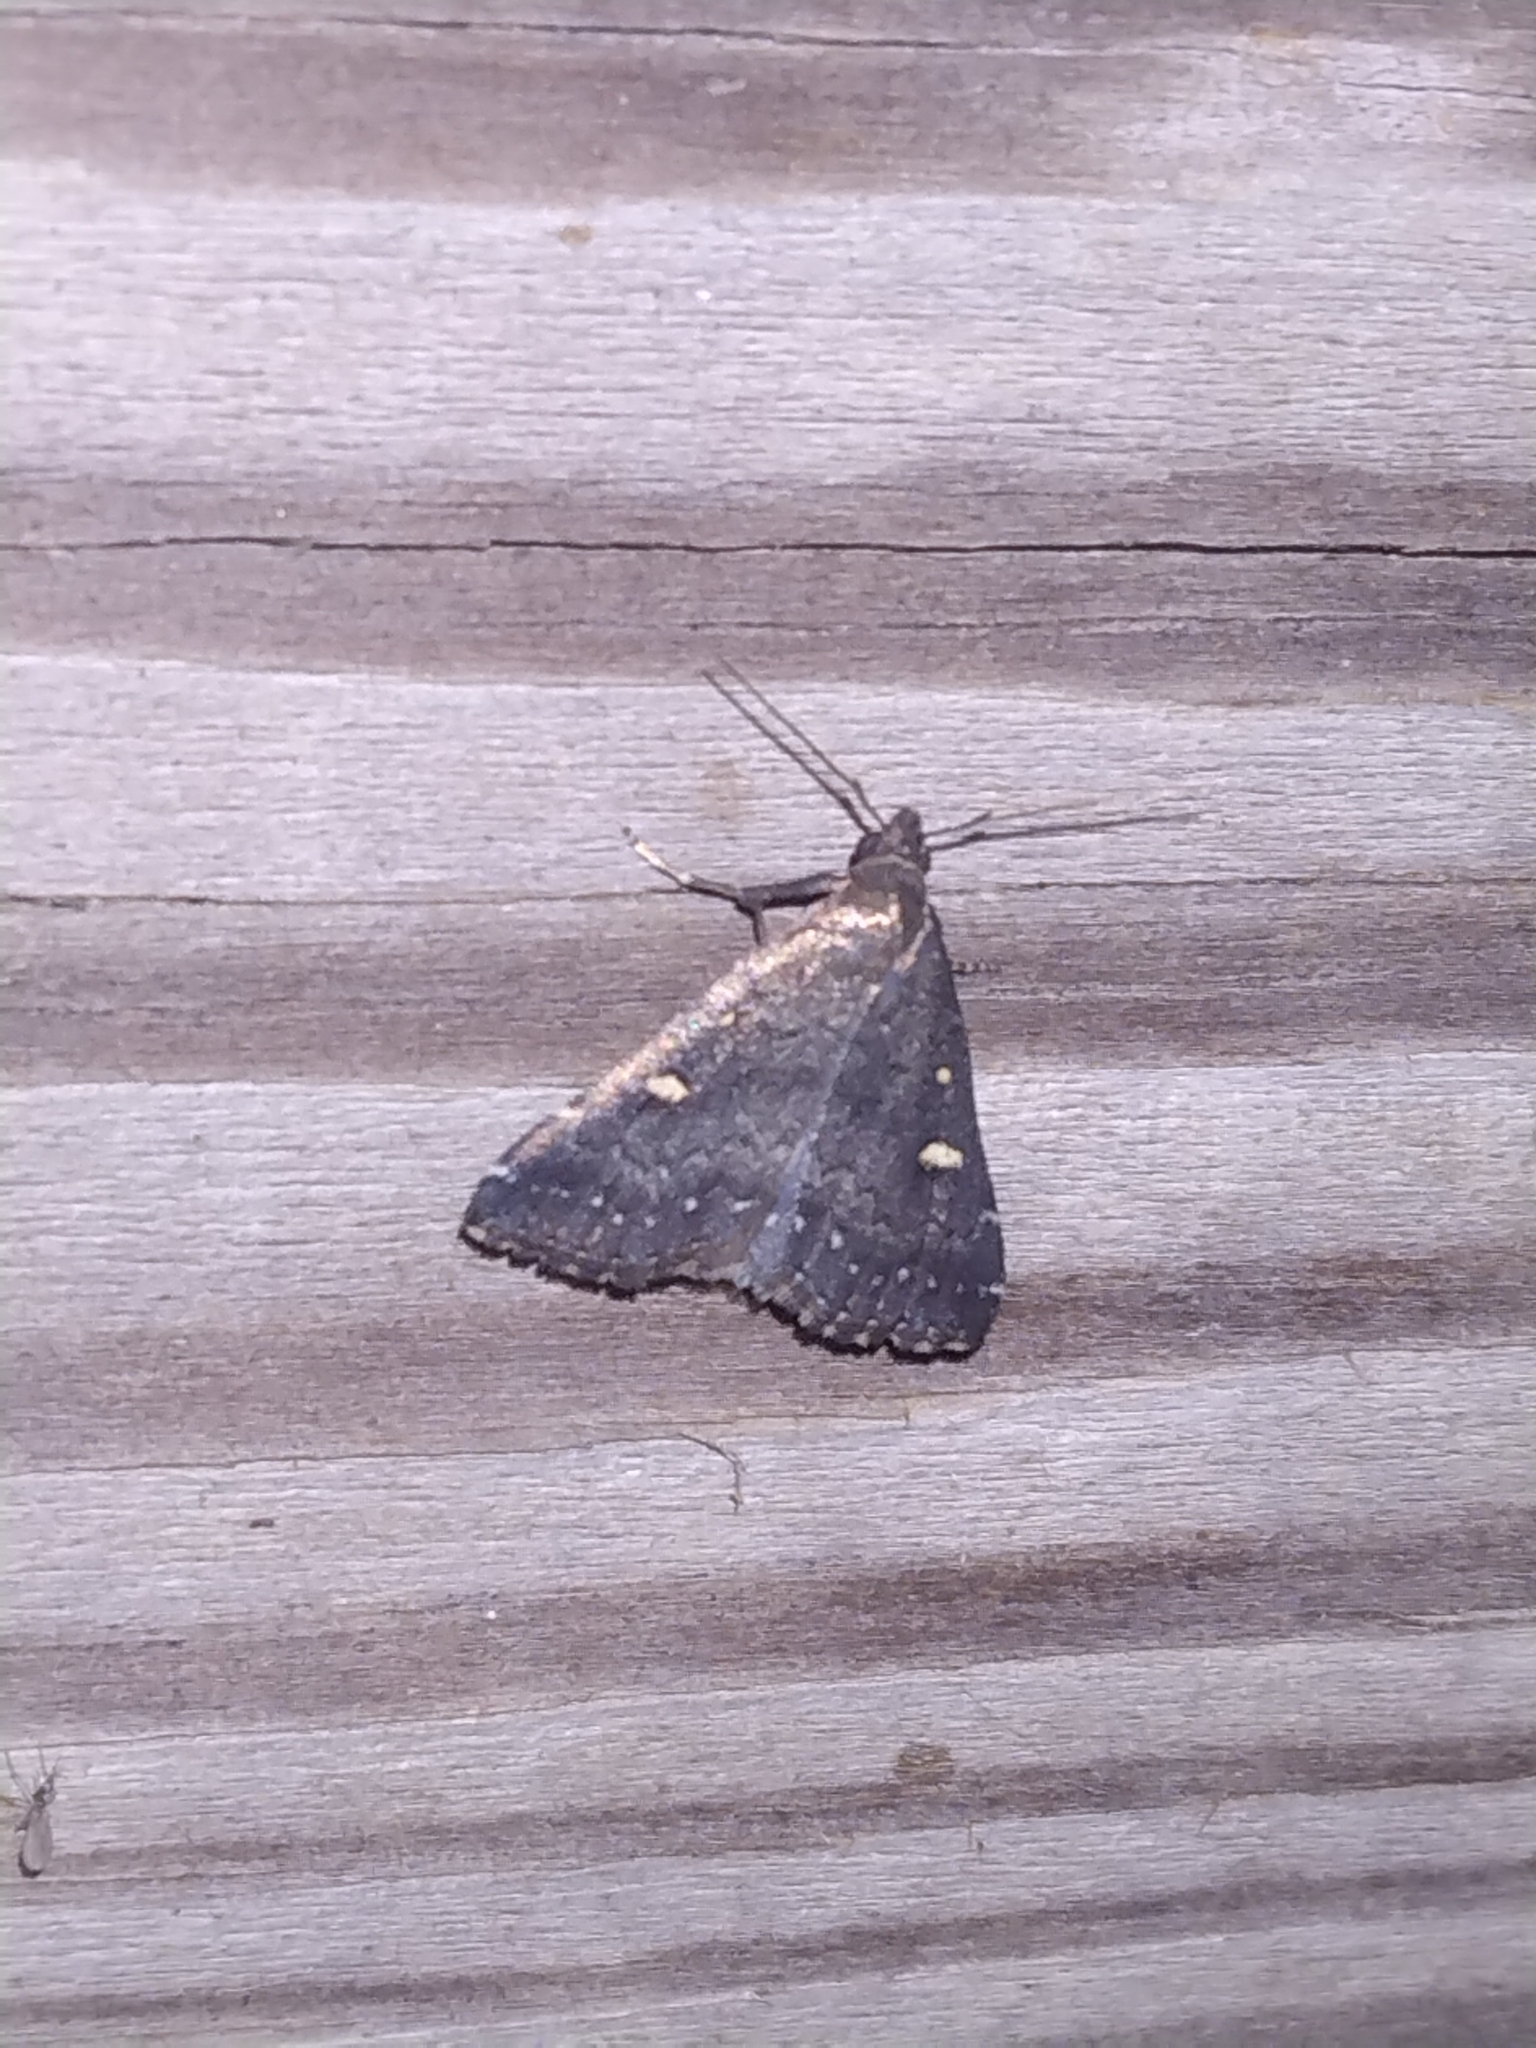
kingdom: Animalia
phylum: Arthropoda
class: Insecta
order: Lepidoptera
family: Erebidae
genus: Tetanolita
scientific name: Tetanolita mynesalis
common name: Smoky tetanolita moth
